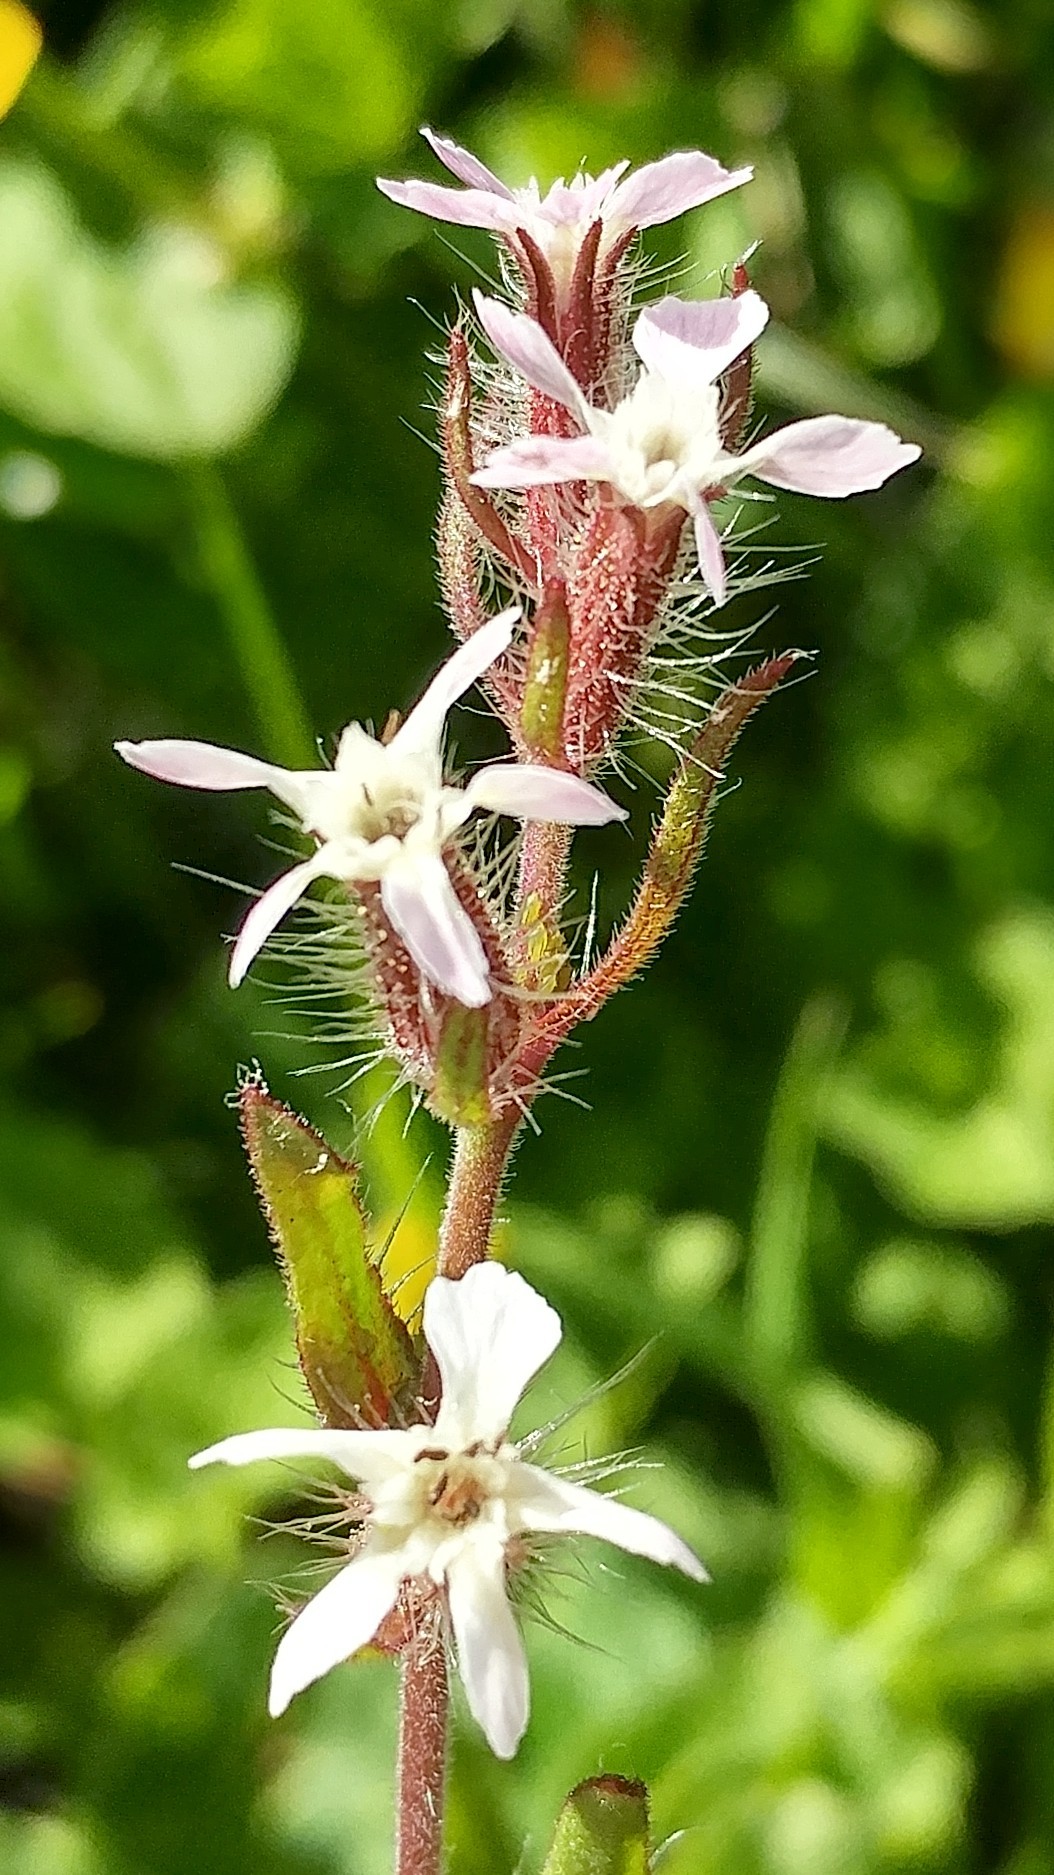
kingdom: Plantae
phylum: Tracheophyta
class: Magnoliopsida
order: Caryophyllales
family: Caryophyllaceae
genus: Silene
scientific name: Silene gallica
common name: Small-flowered catchfly
